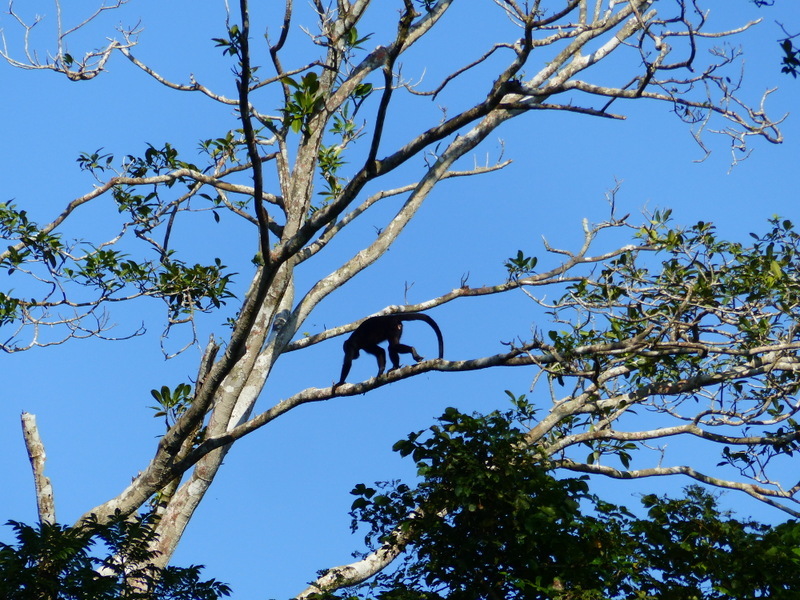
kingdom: Animalia
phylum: Chordata
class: Mammalia
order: Primates
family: Atelidae
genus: Alouatta
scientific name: Alouatta palliata
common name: Mantled howler
